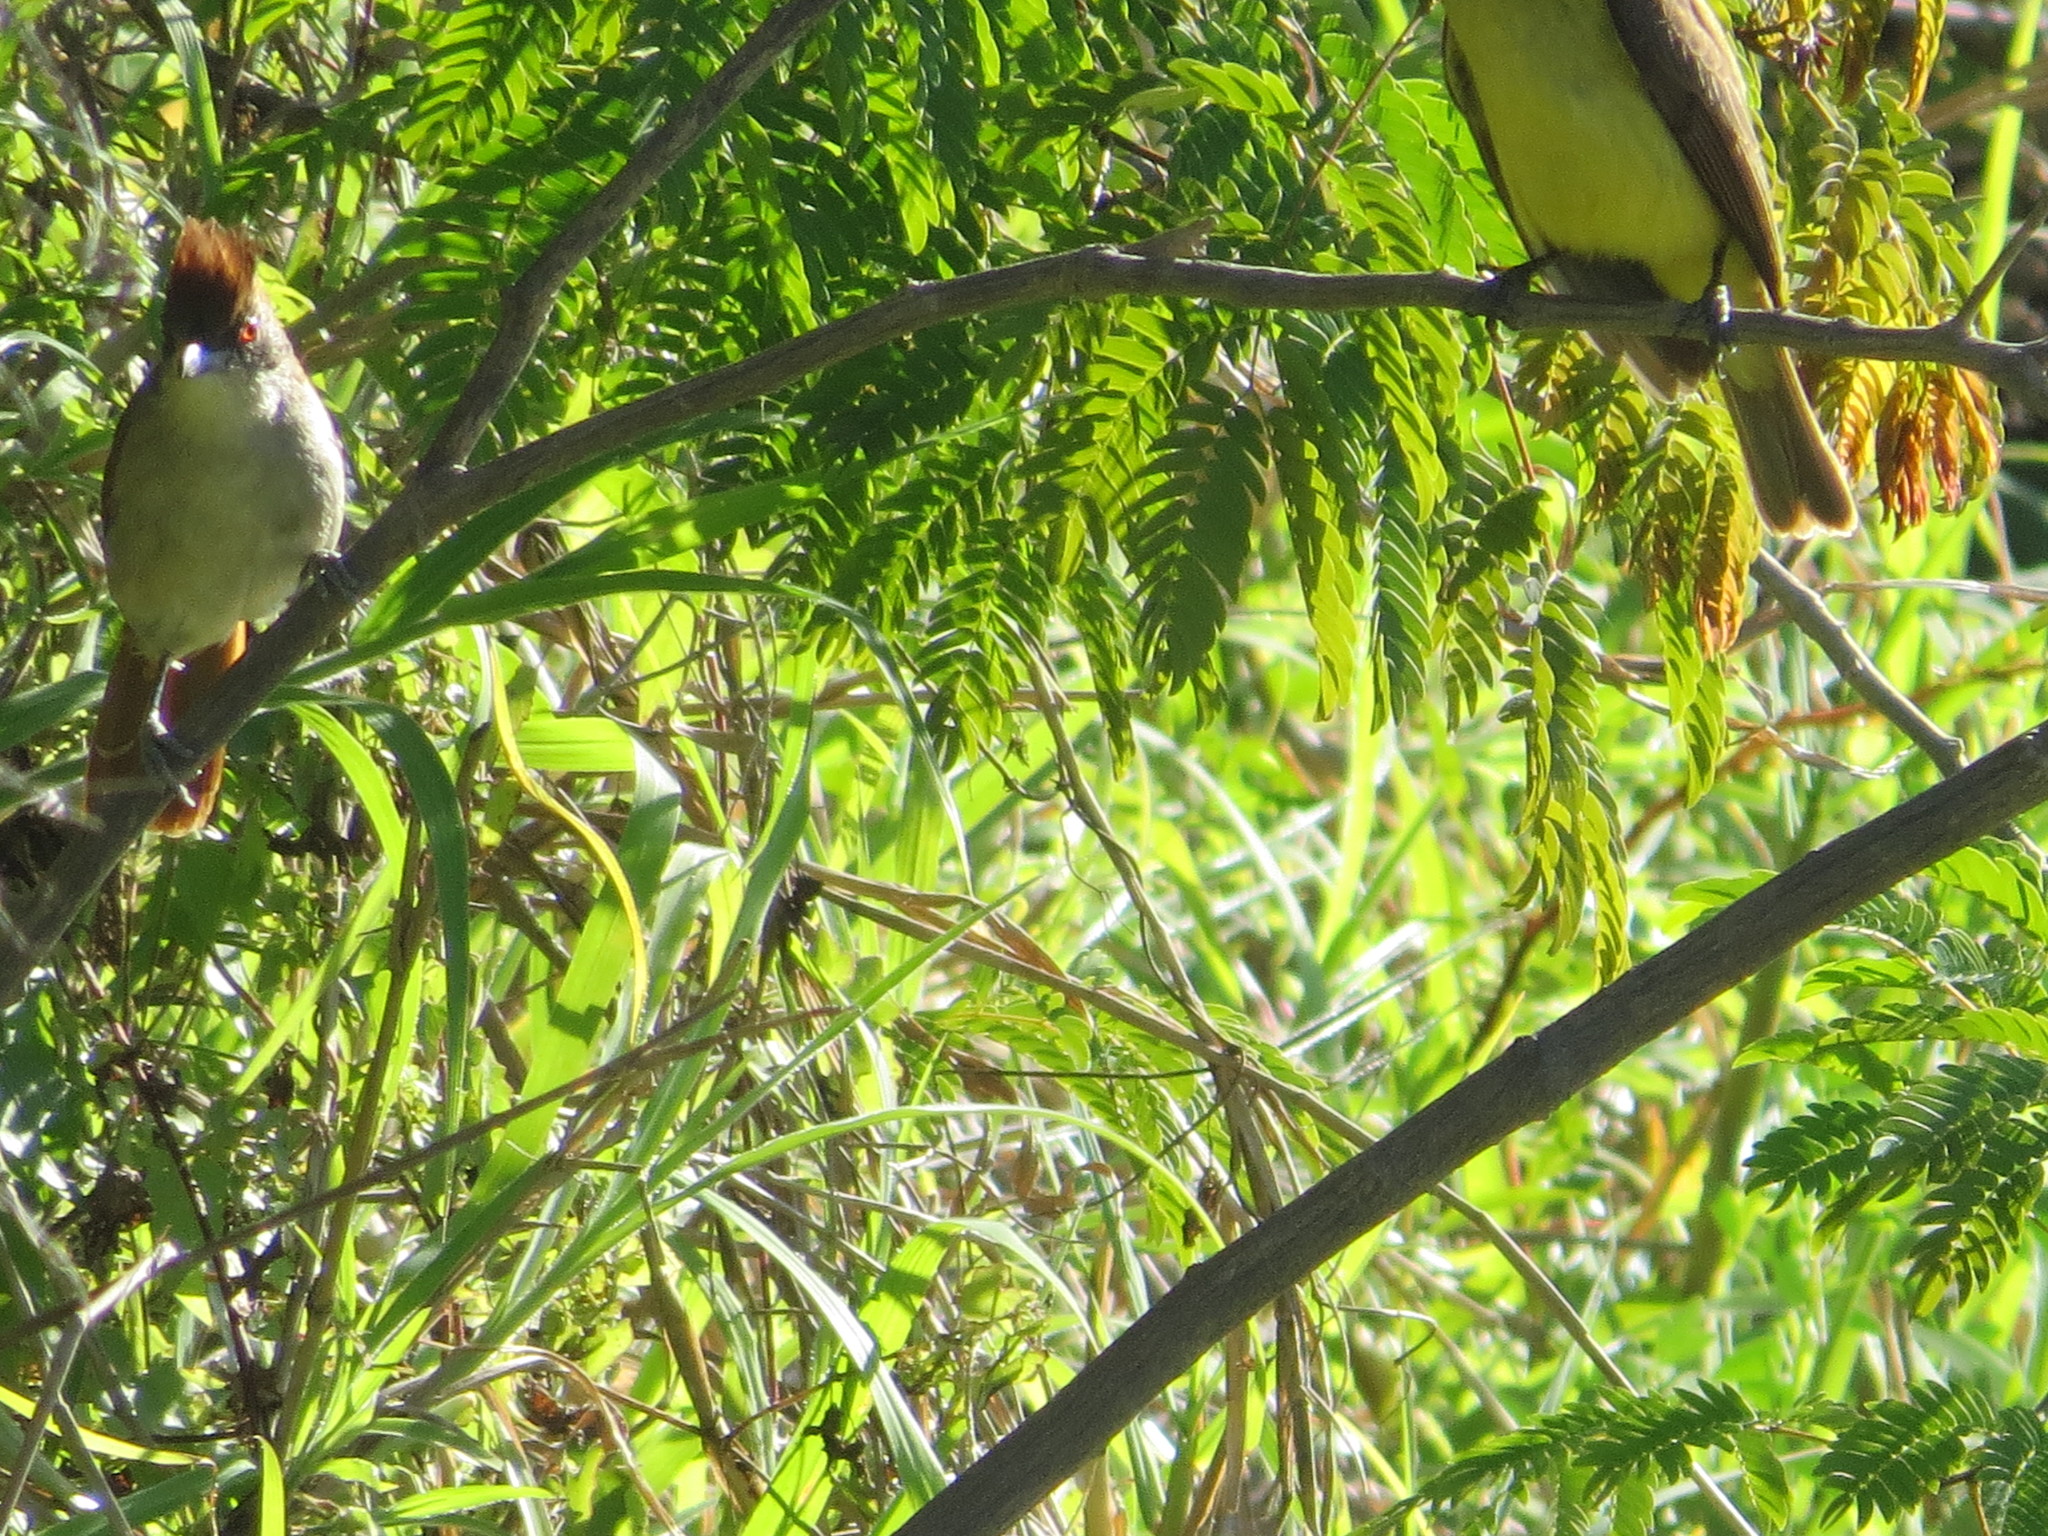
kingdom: Animalia
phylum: Chordata
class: Aves
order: Passeriformes
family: Thamnophilidae
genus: Taraba
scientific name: Taraba major
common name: Great antshrike
